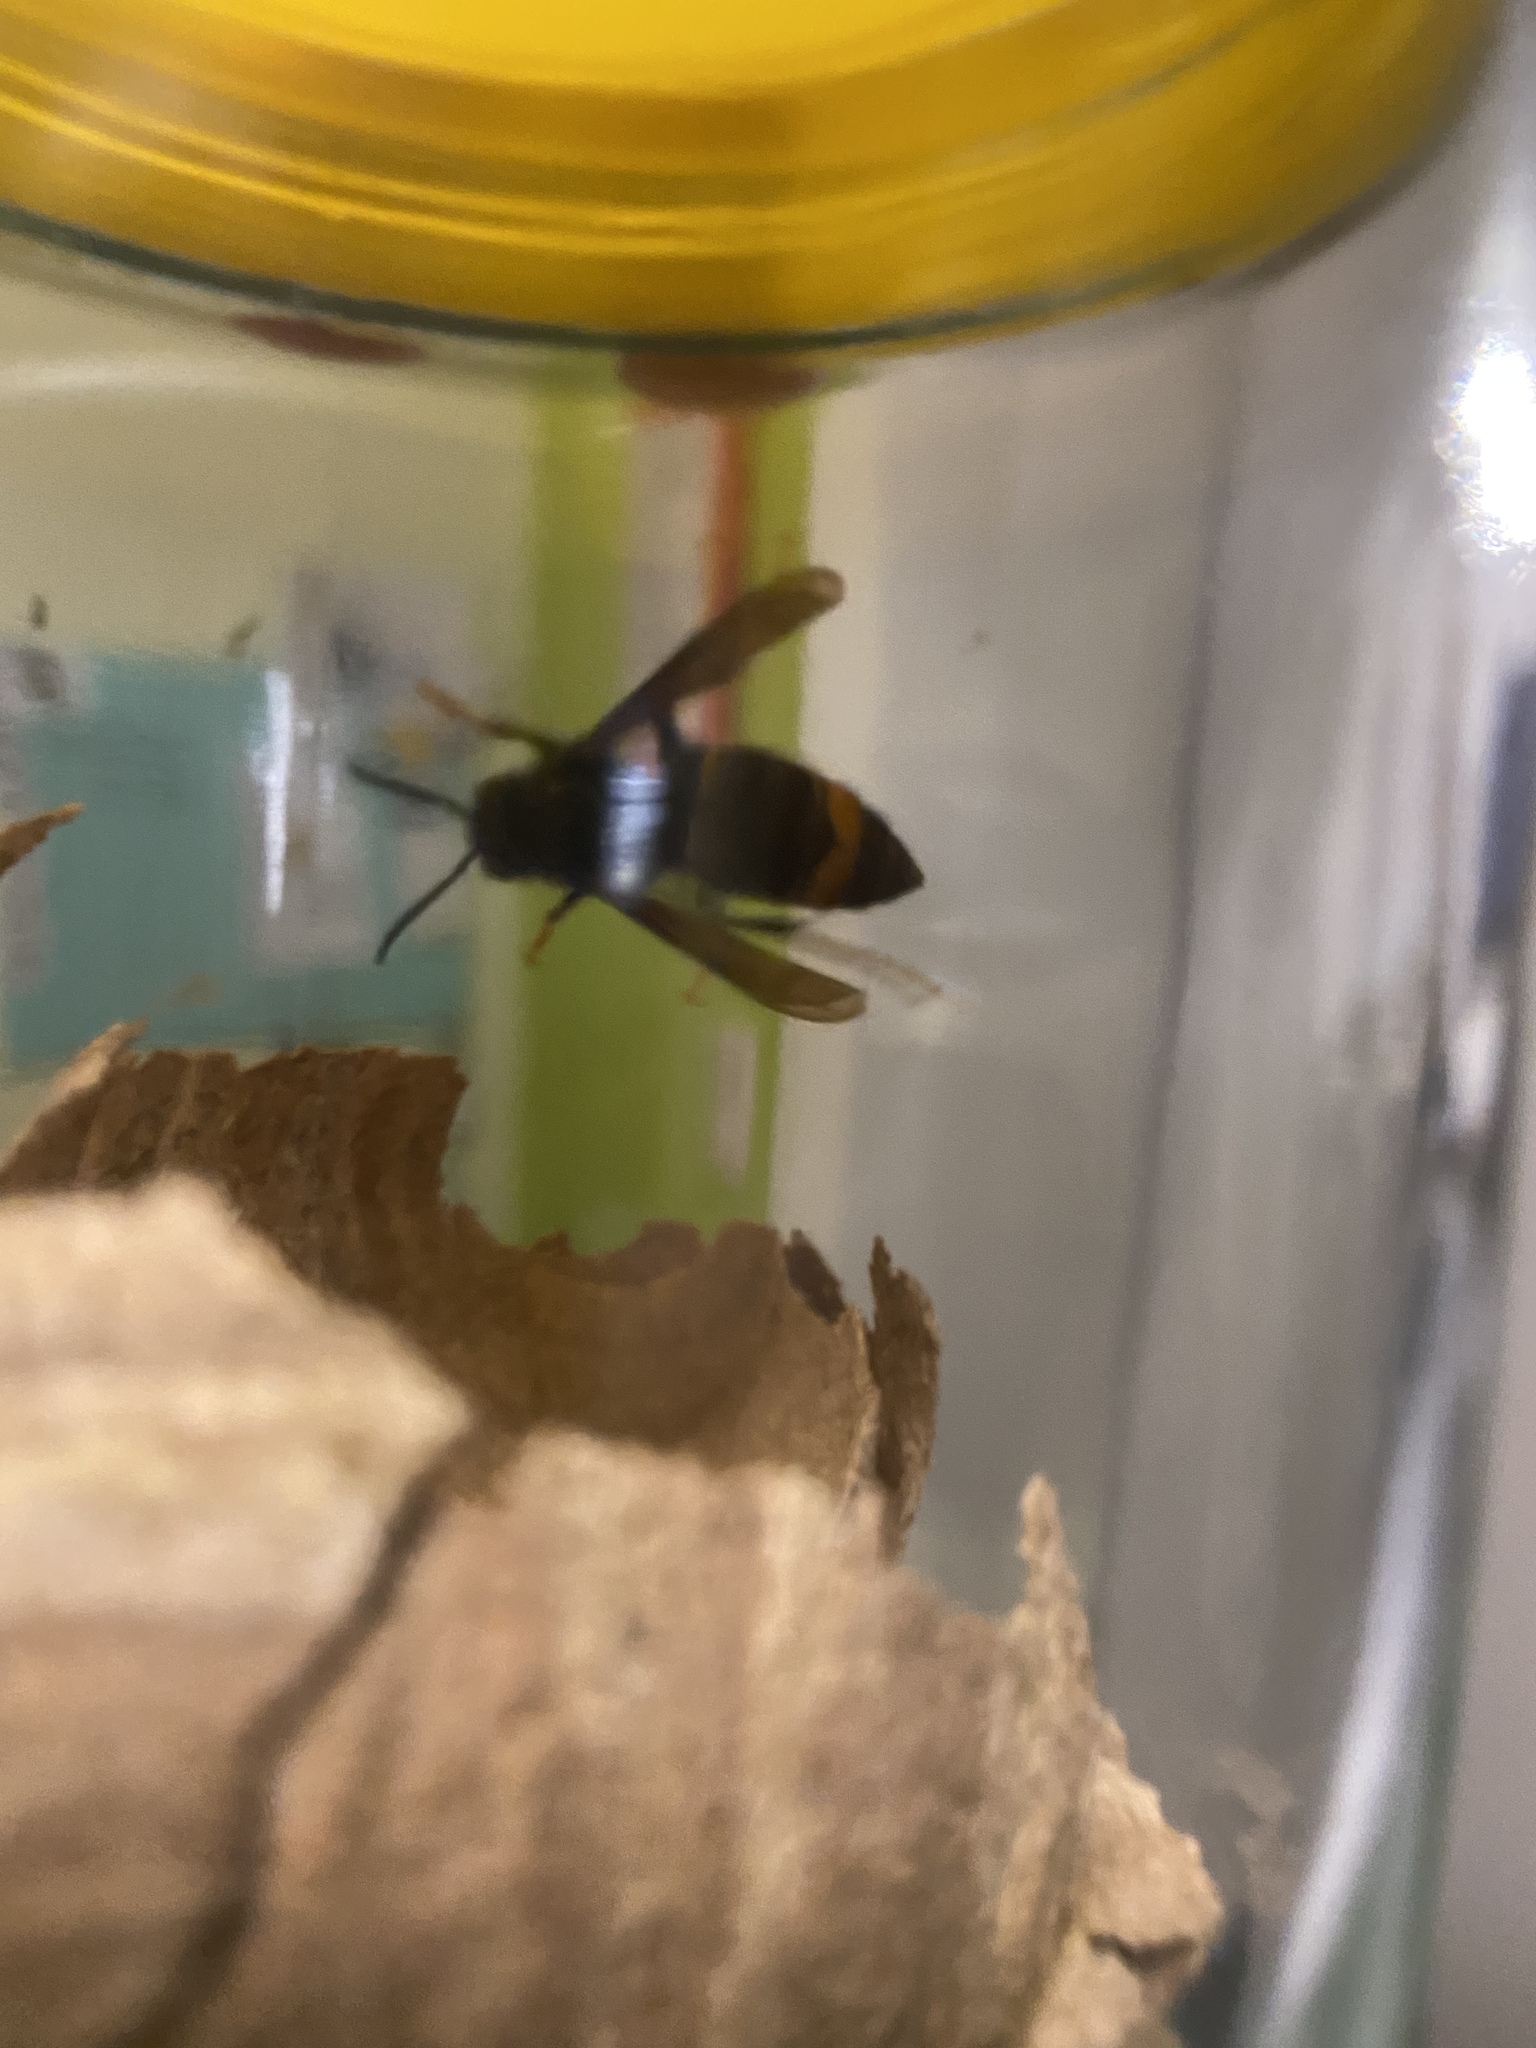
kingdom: Animalia
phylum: Arthropoda
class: Insecta
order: Hymenoptera
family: Vespidae
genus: Vespa
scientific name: Vespa velutina
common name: Asian hornet
